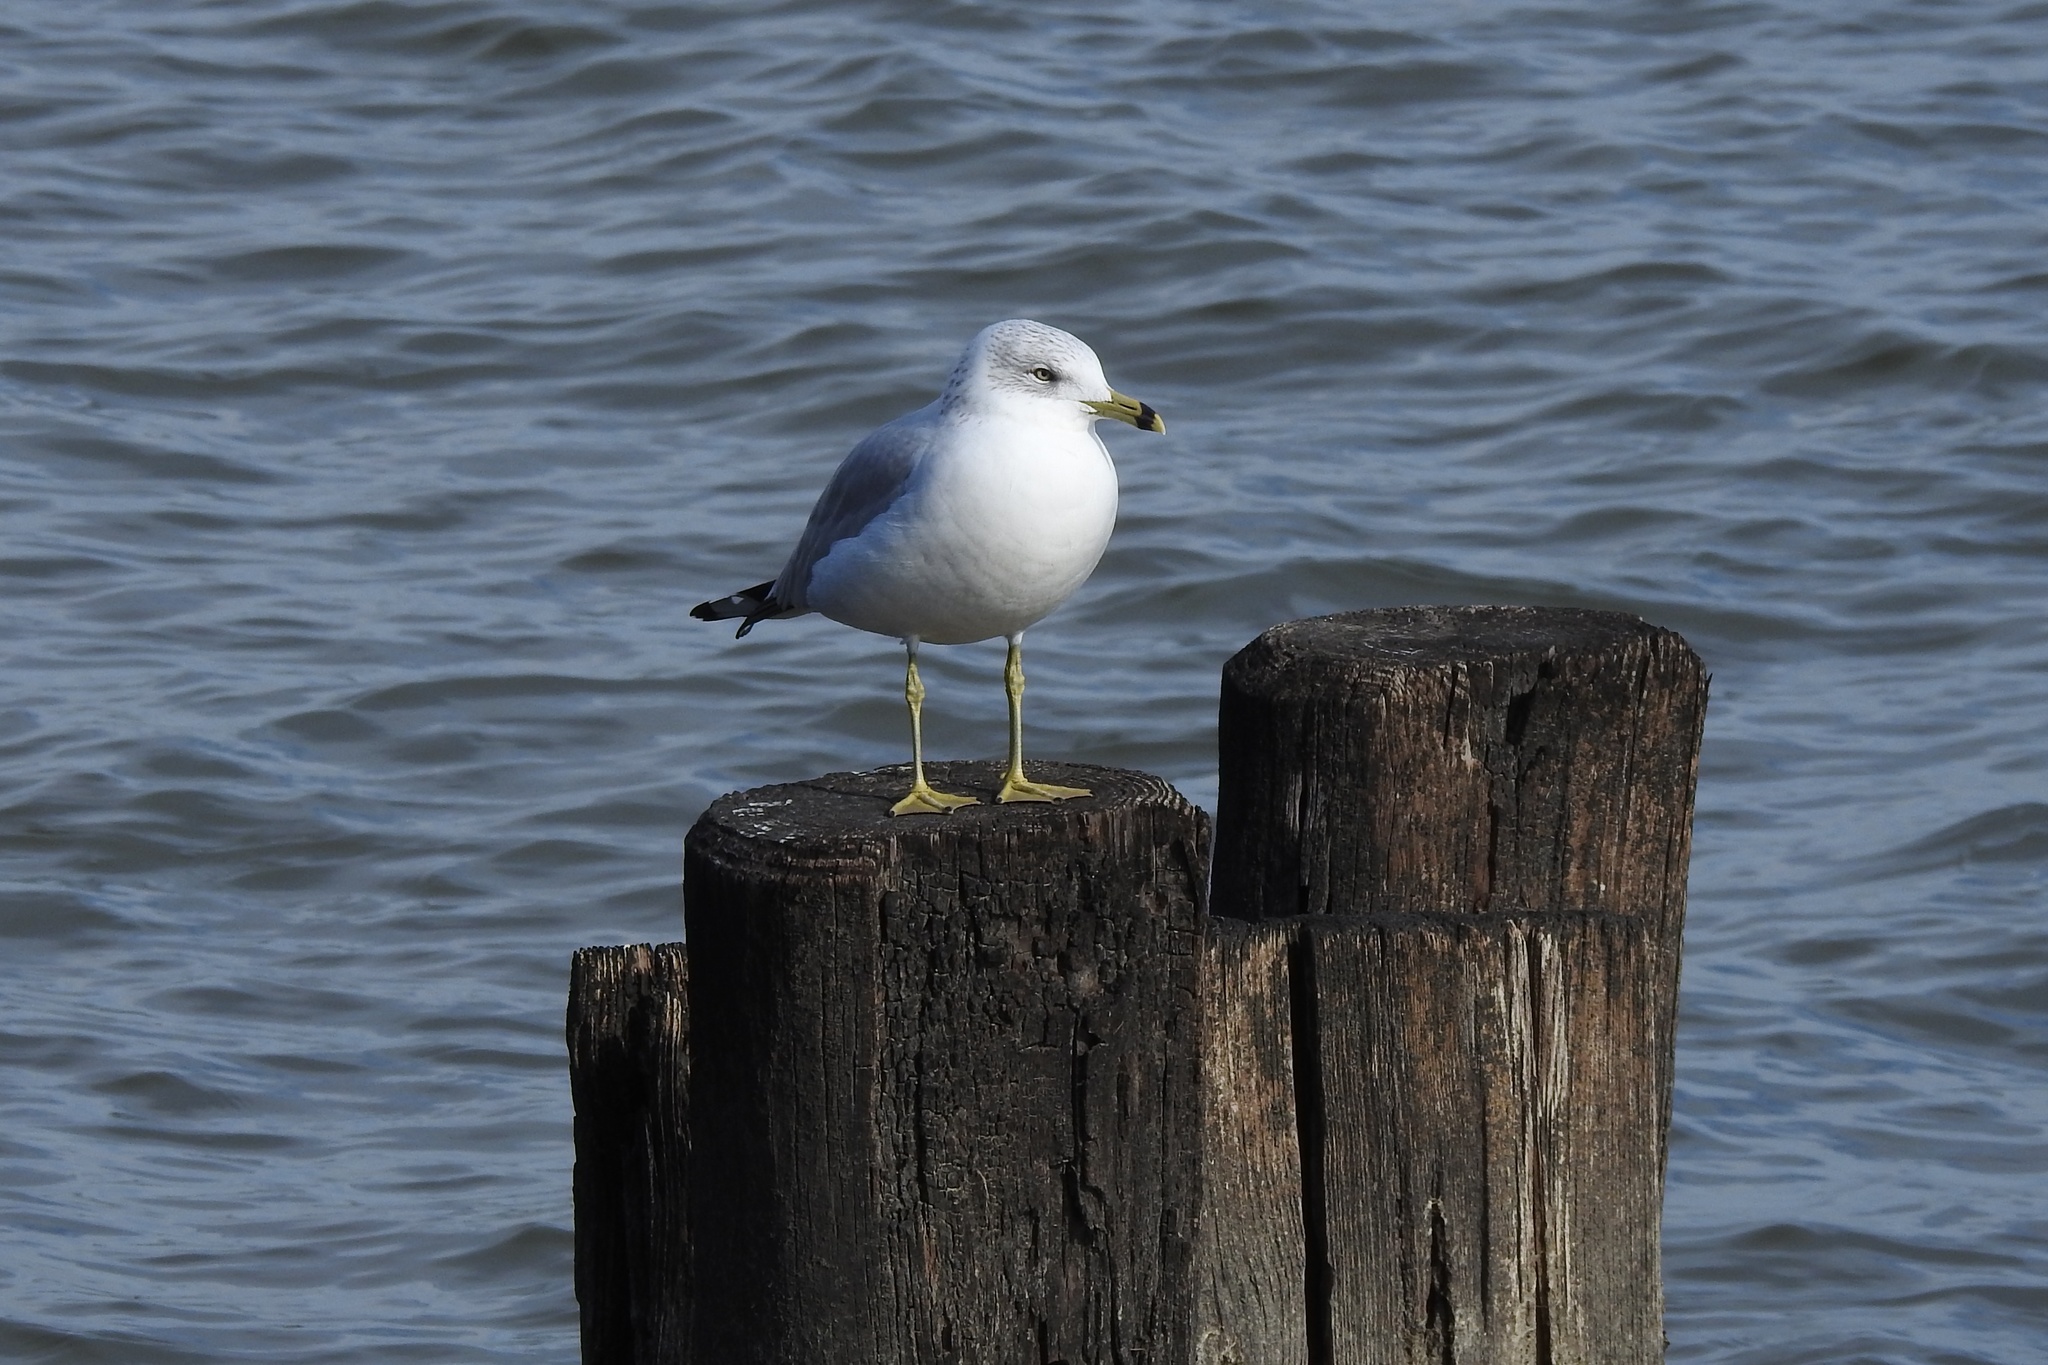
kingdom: Animalia
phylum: Chordata
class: Aves
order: Charadriiformes
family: Laridae
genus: Larus
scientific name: Larus delawarensis
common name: Ring-billed gull
